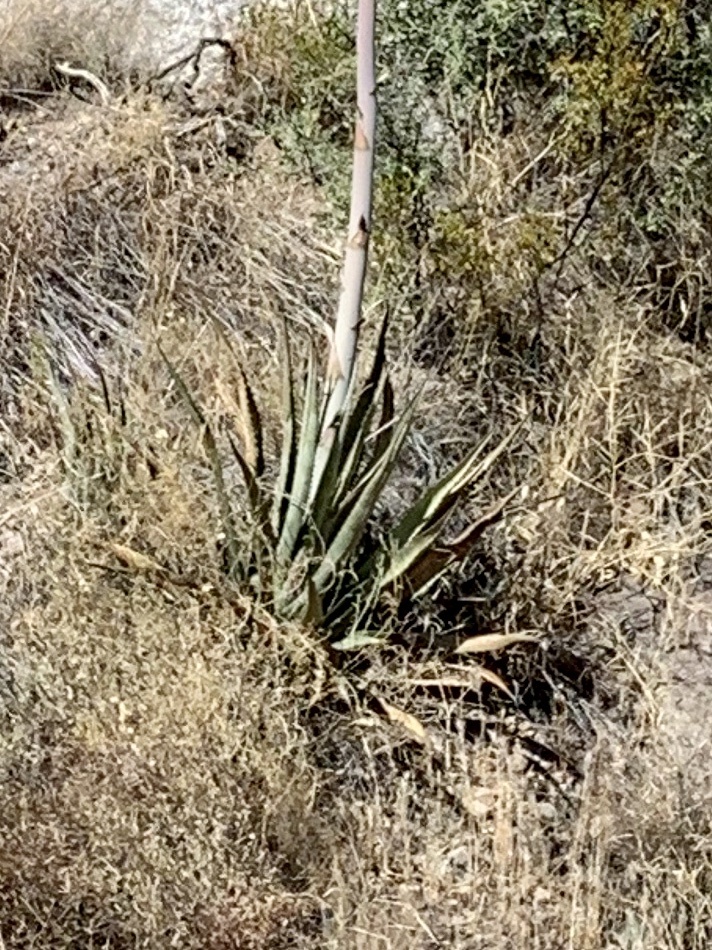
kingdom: Plantae
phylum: Tracheophyta
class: Liliopsida
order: Asparagales
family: Asparagaceae
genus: Agave
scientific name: Agave palmeri
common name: Palmer agave
